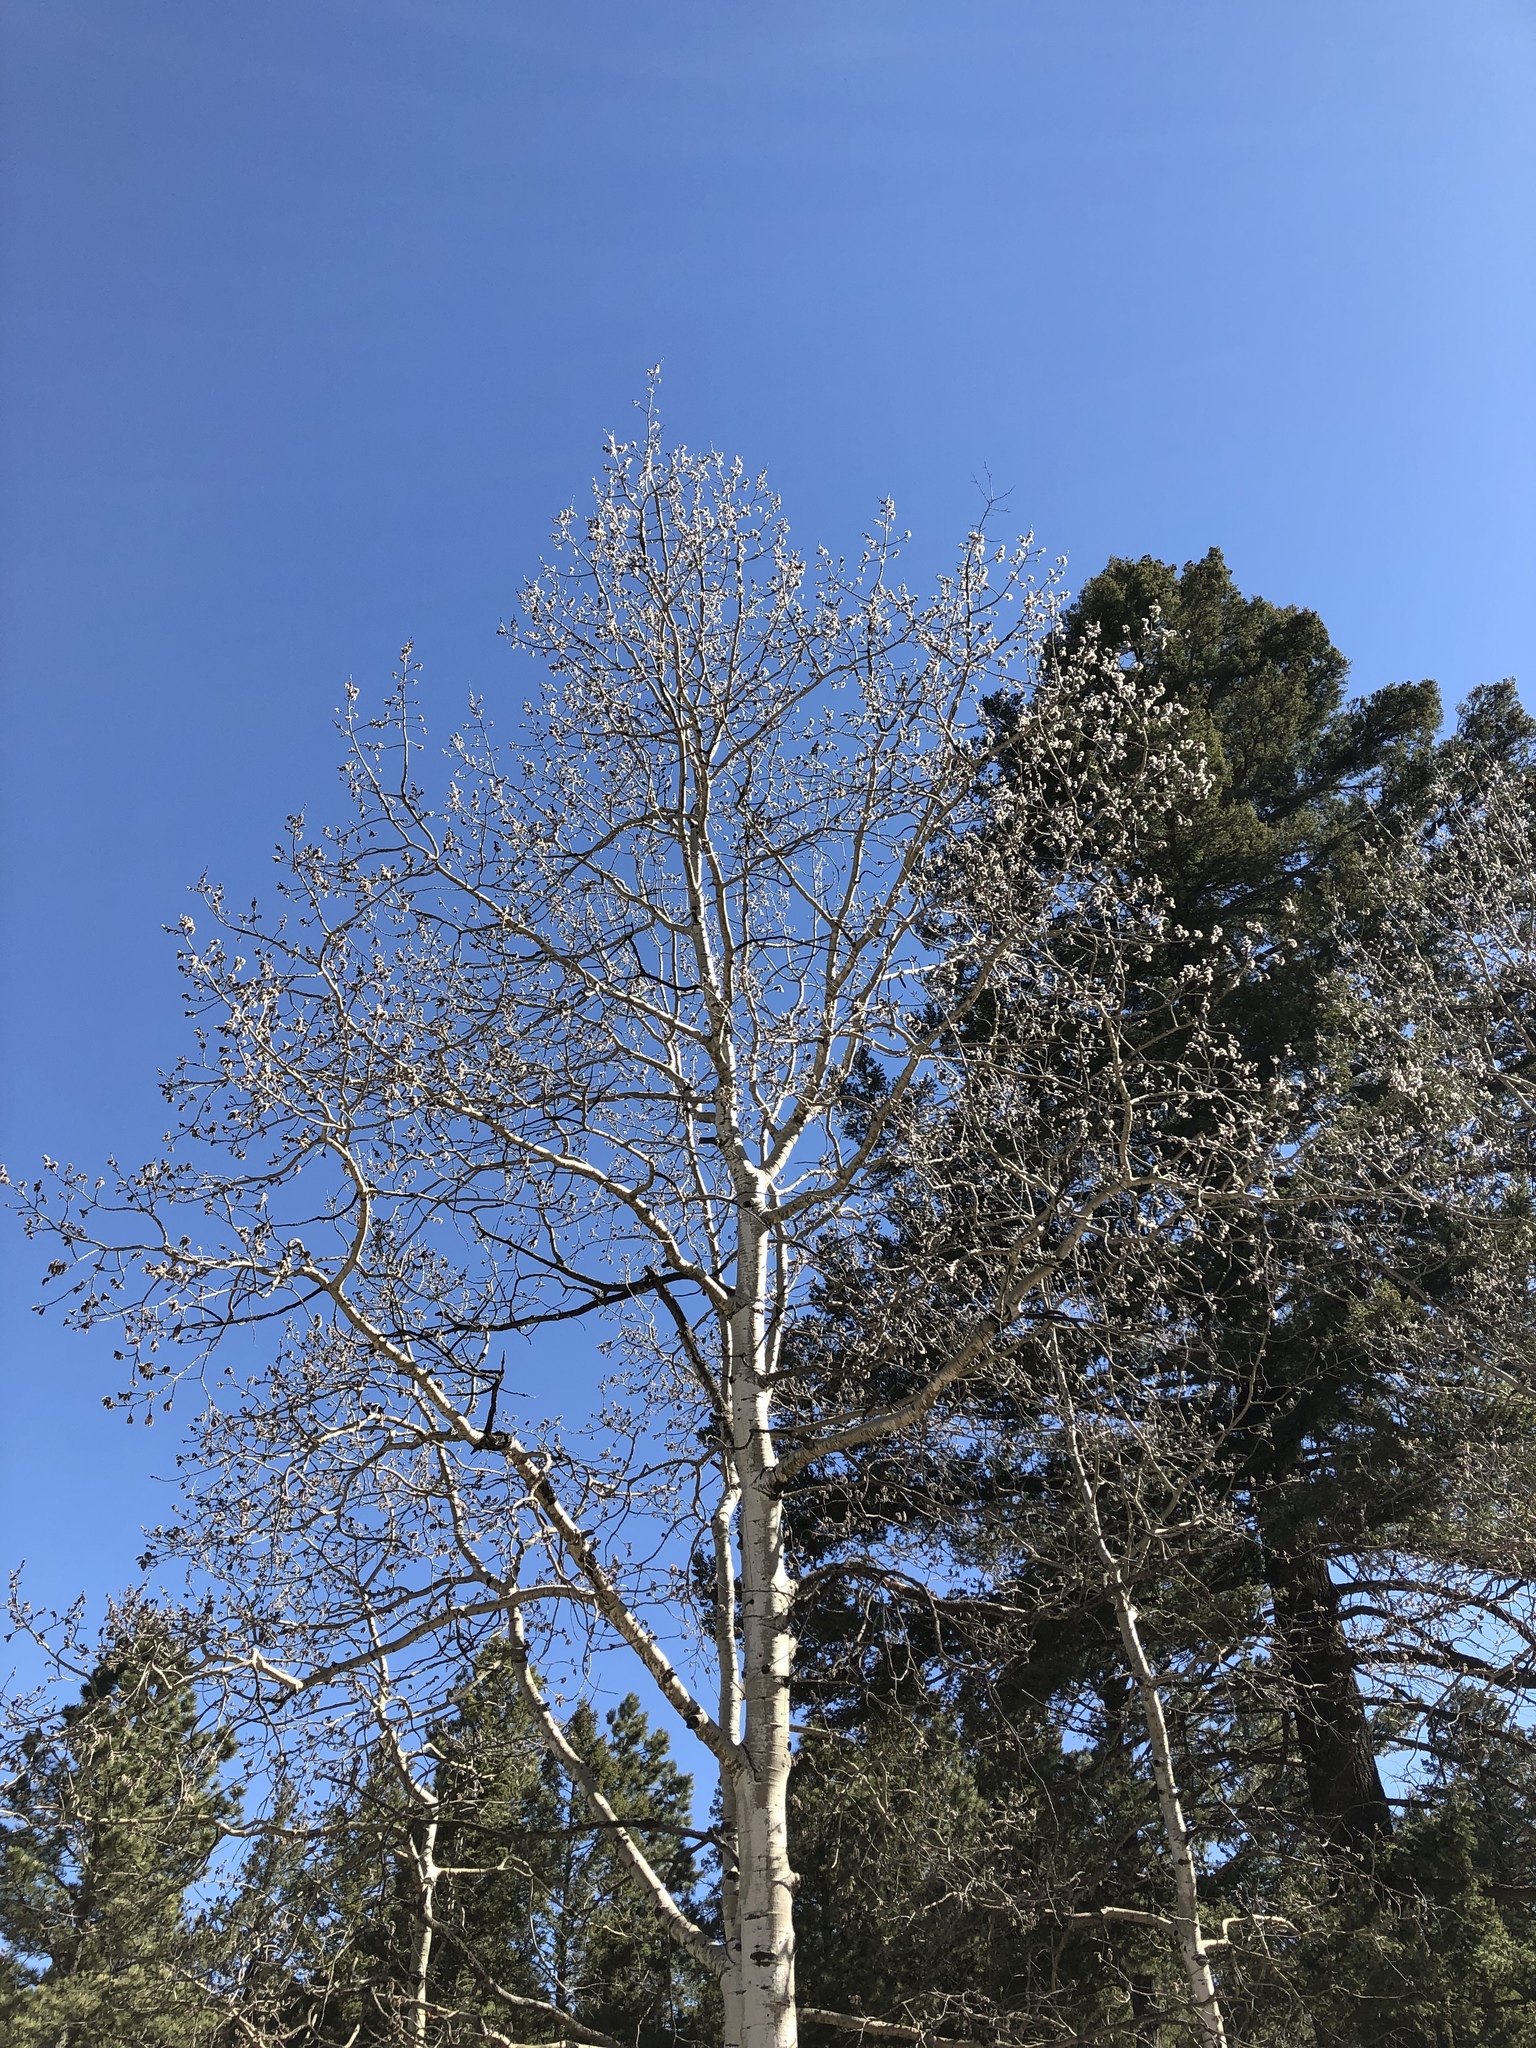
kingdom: Plantae
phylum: Tracheophyta
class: Magnoliopsida
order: Malpighiales
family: Salicaceae
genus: Populus
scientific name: Populus tremuloides
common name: Quaking aspen
